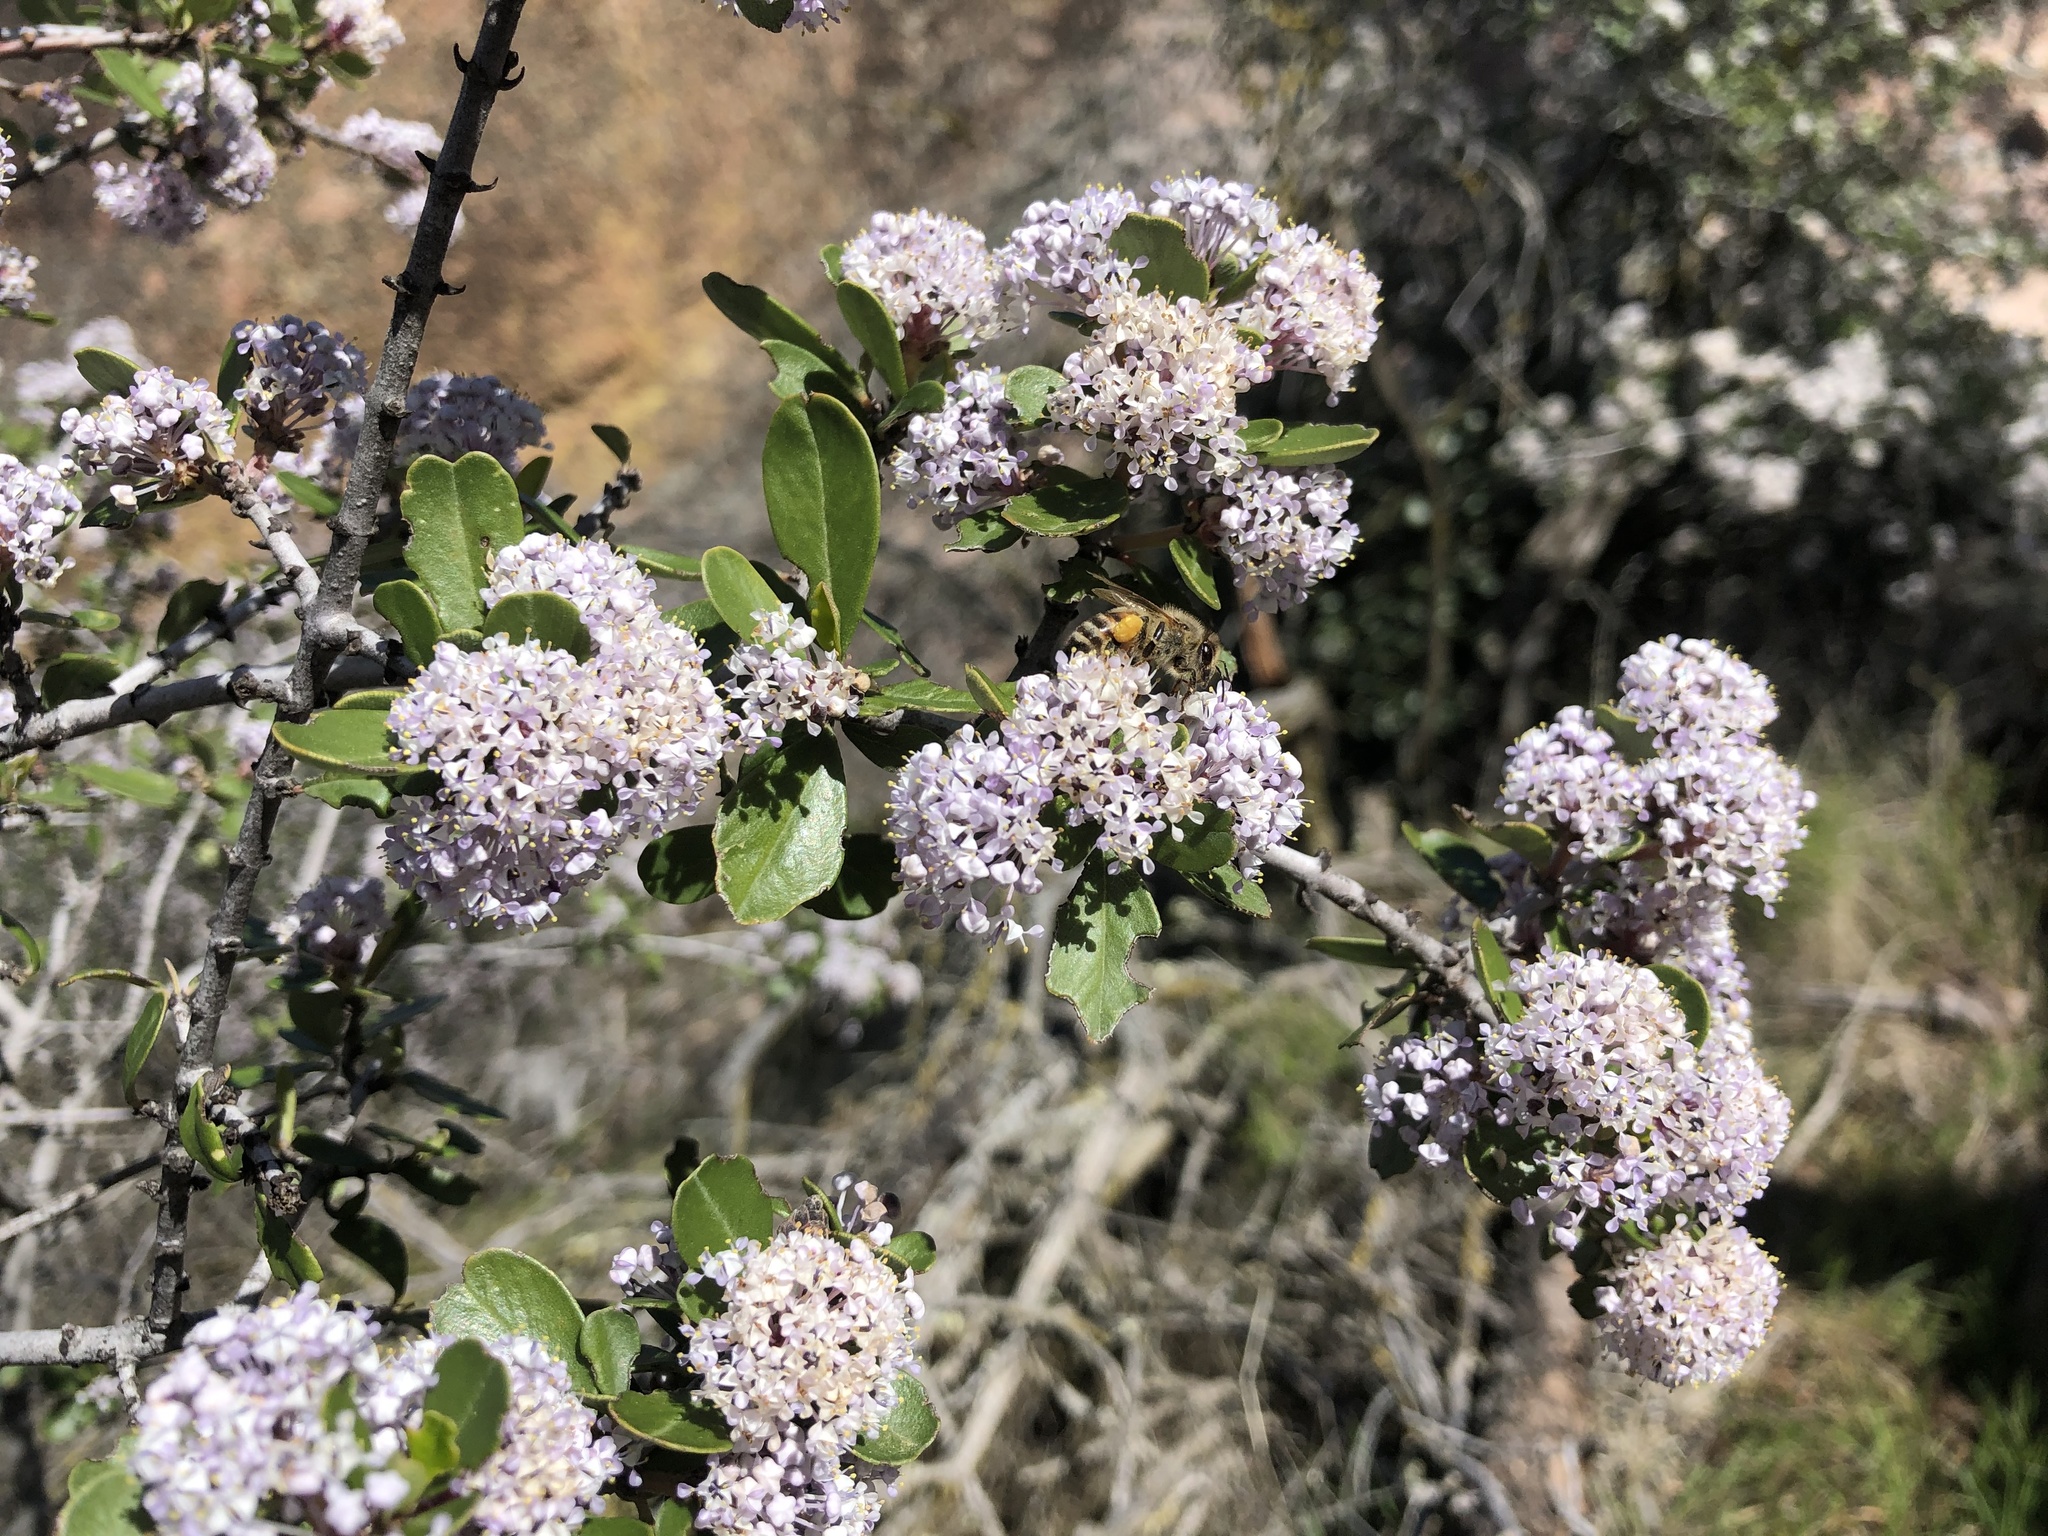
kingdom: Plantae
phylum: Tracheophyta
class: Magnoliopsida
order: Rosales
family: Rhamnaceae
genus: Ceanothus
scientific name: Ceanothus cuneatus
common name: Cuneate ceanothus
